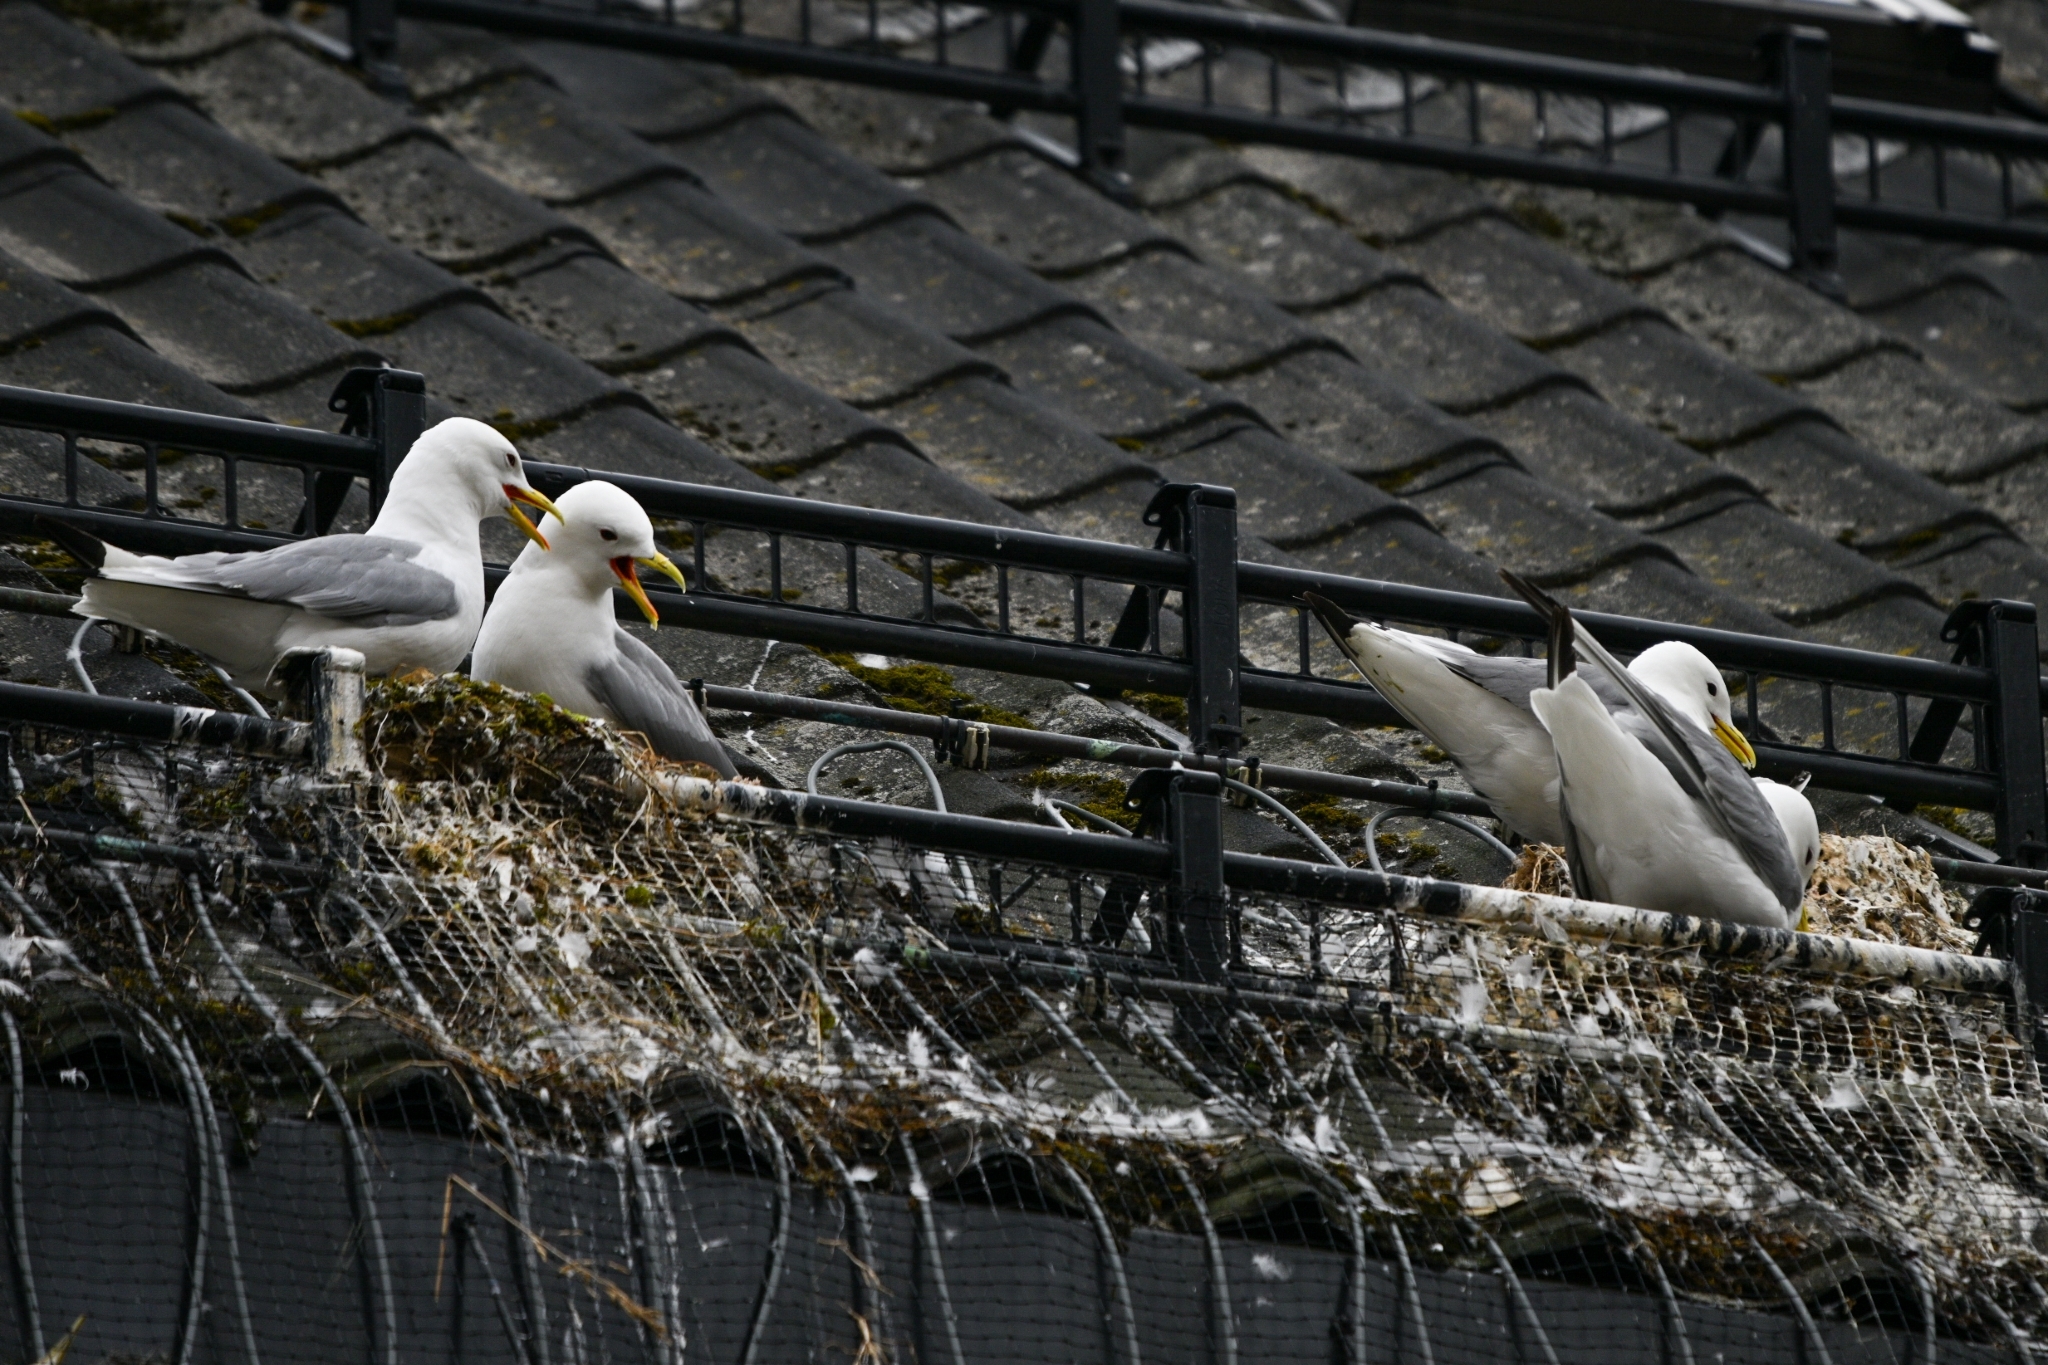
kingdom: Animalia
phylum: Chordata
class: Aves
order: Charadriiformes
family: Laridae
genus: Rissa
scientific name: Rissa tridactyla
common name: Black-legged kittiwake
